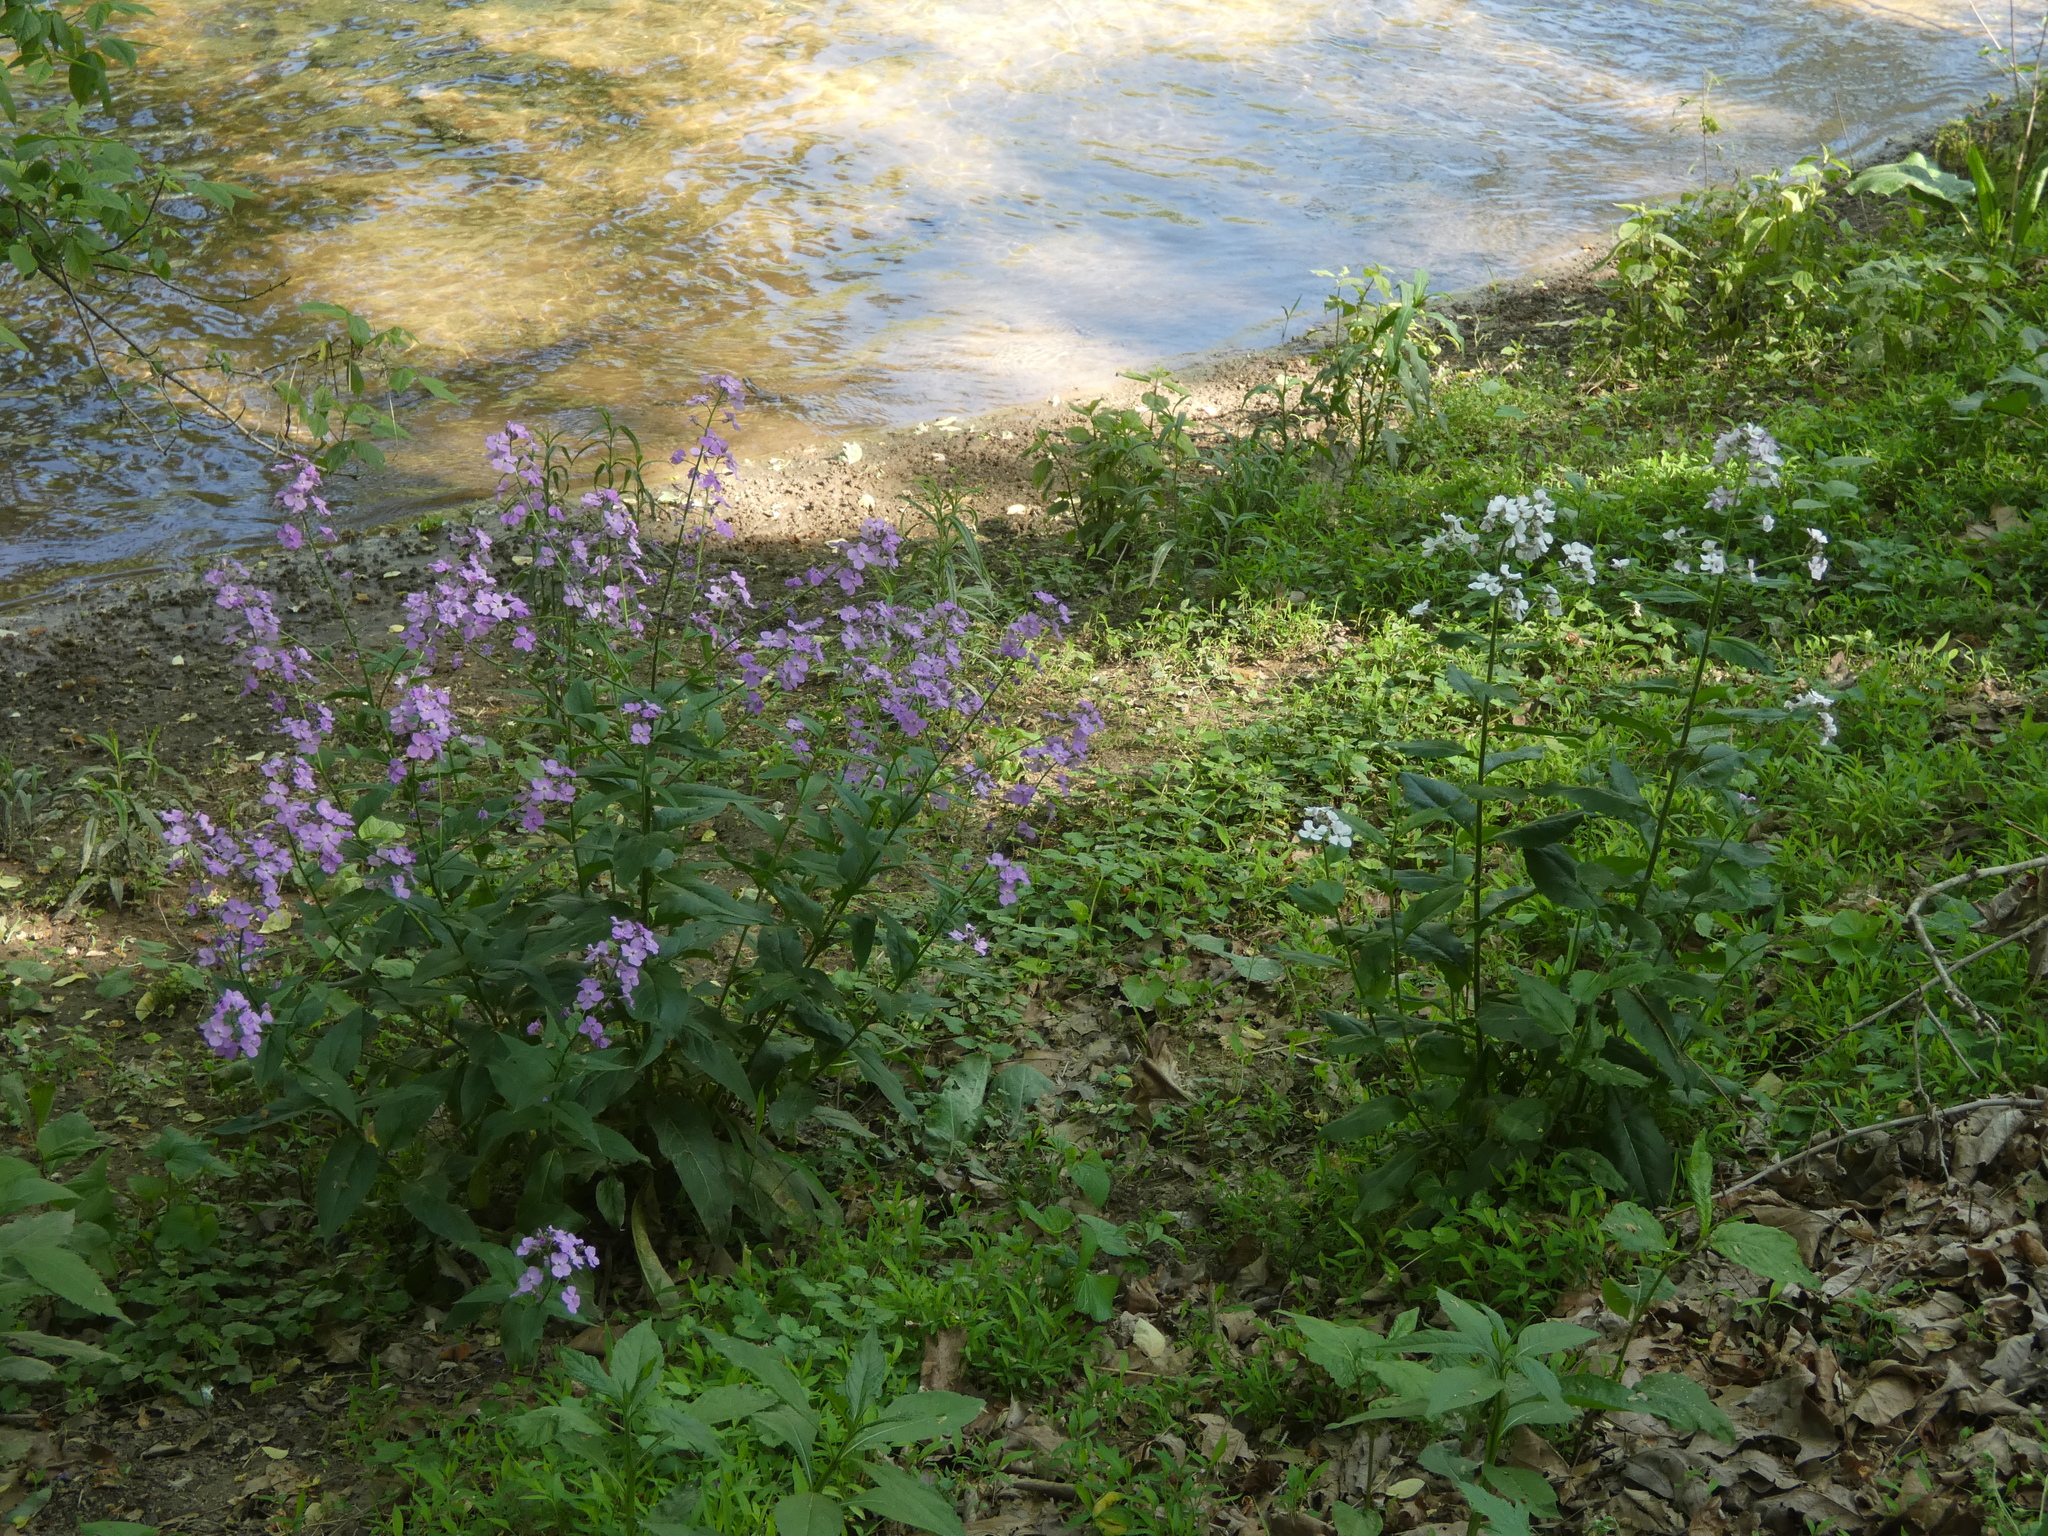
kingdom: Plantae
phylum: Tracheophyta
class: Magnoliopsida
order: Brassicales
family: Brassicaceae
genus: Hesperis
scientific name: Hesperis matronalis
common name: Dame's-violet
